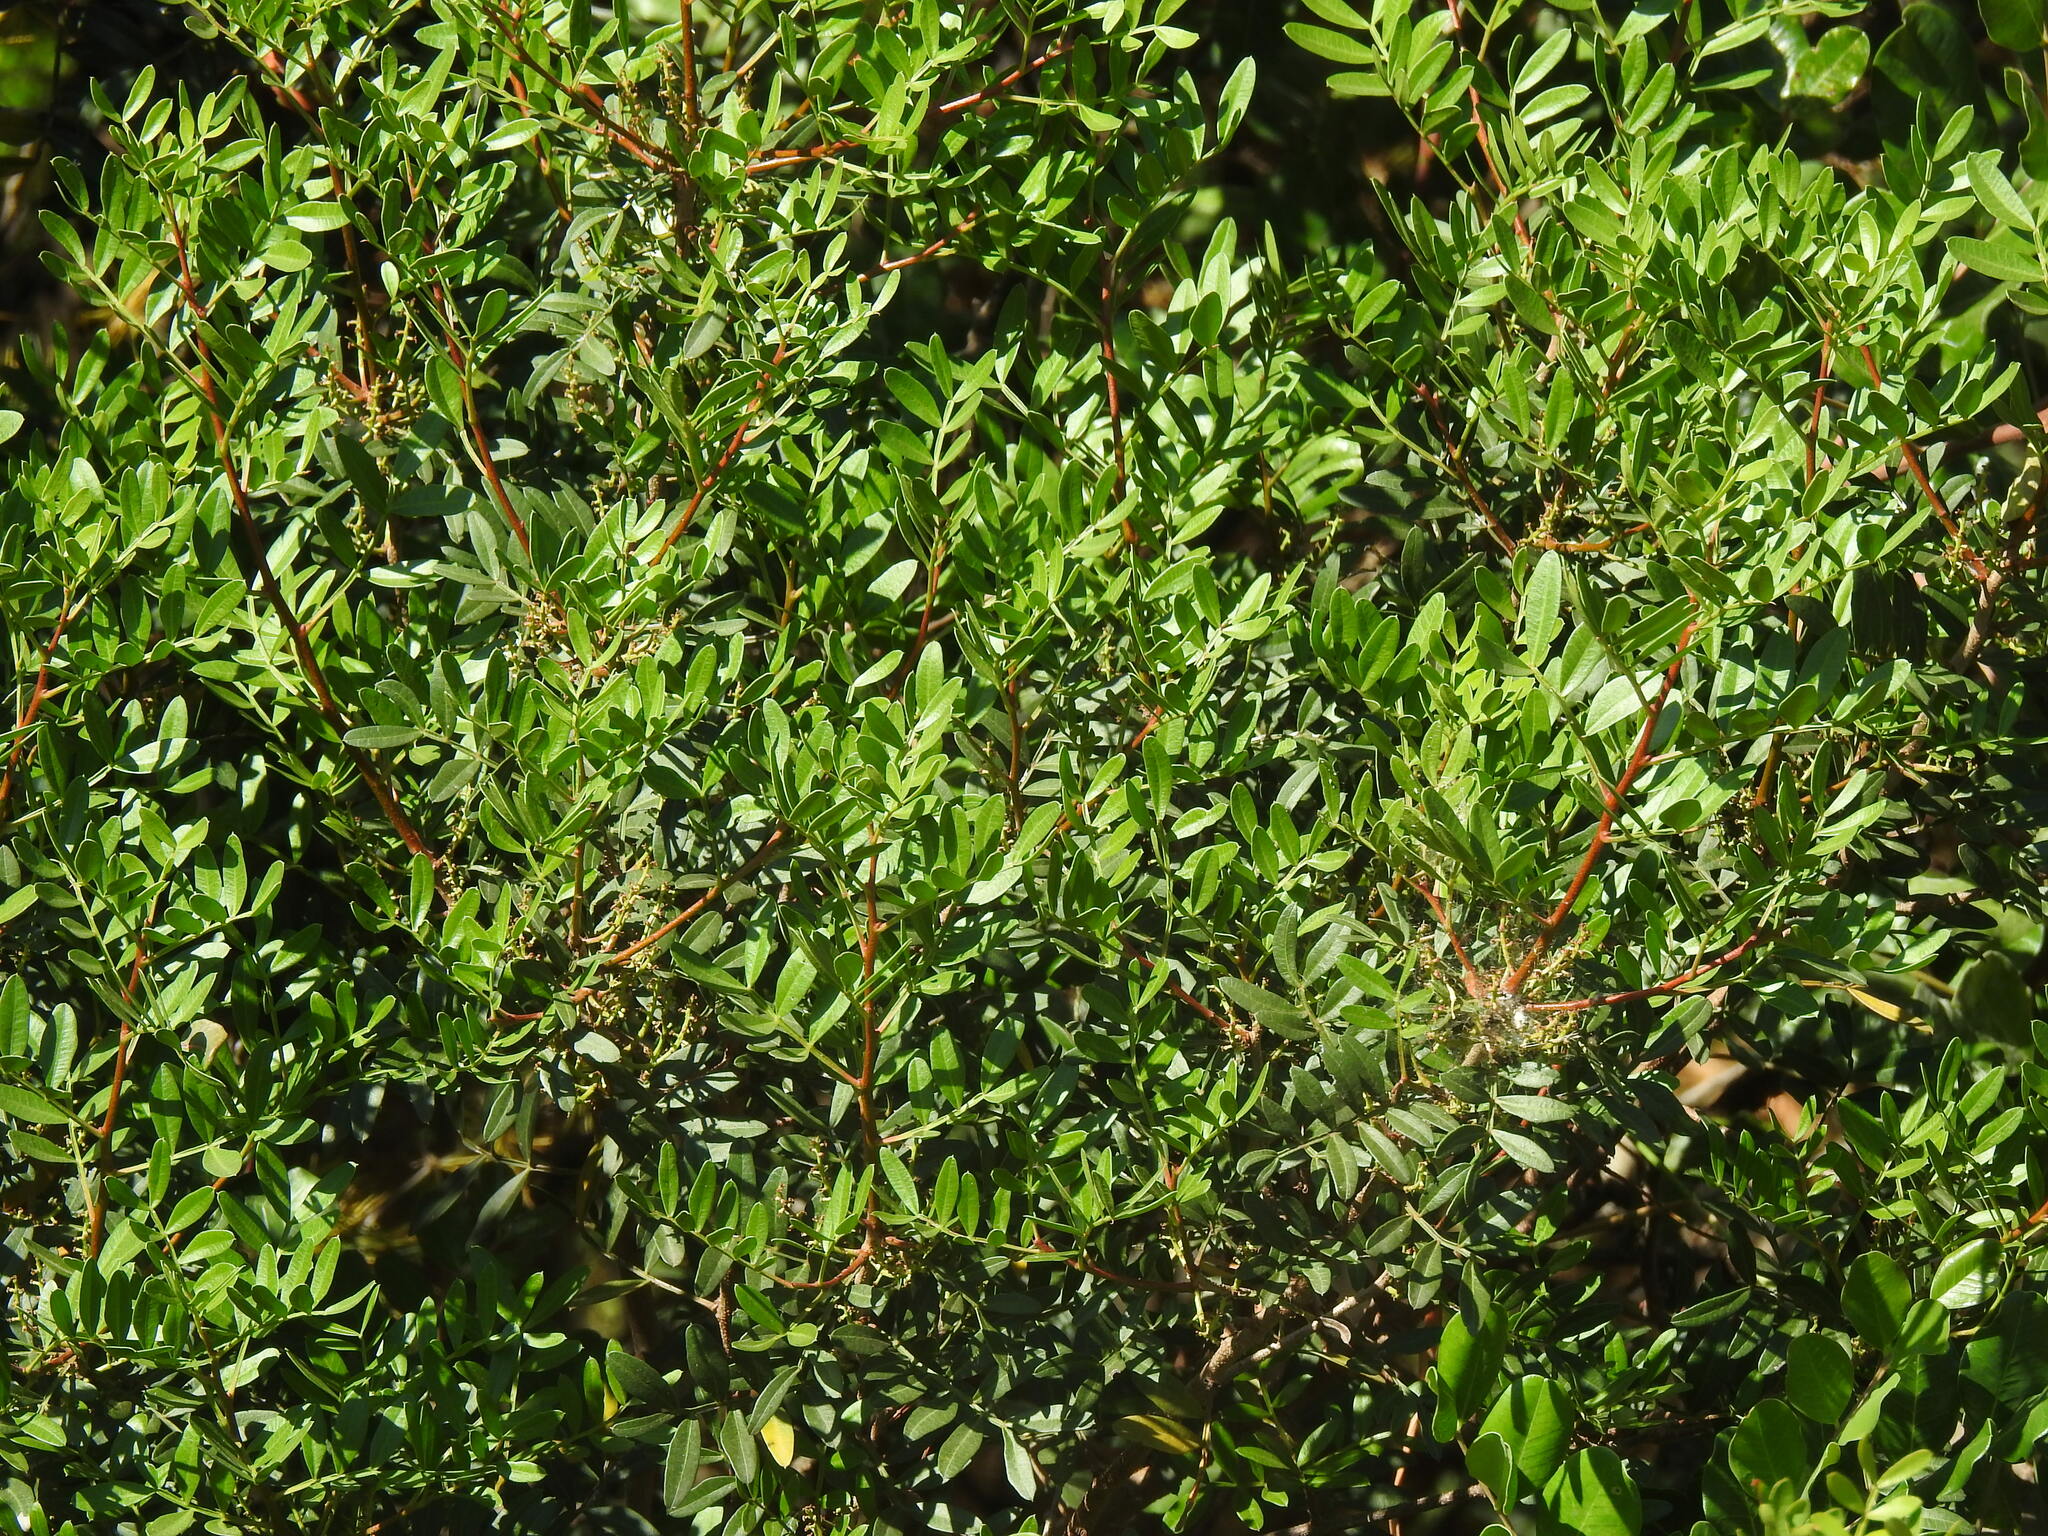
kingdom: Plantae
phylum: Tracheophyta
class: Magnoliopsida
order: Sapindales
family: Anacardiaceae
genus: Pistacia
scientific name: Pistacia lentiscus
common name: Lentisk
